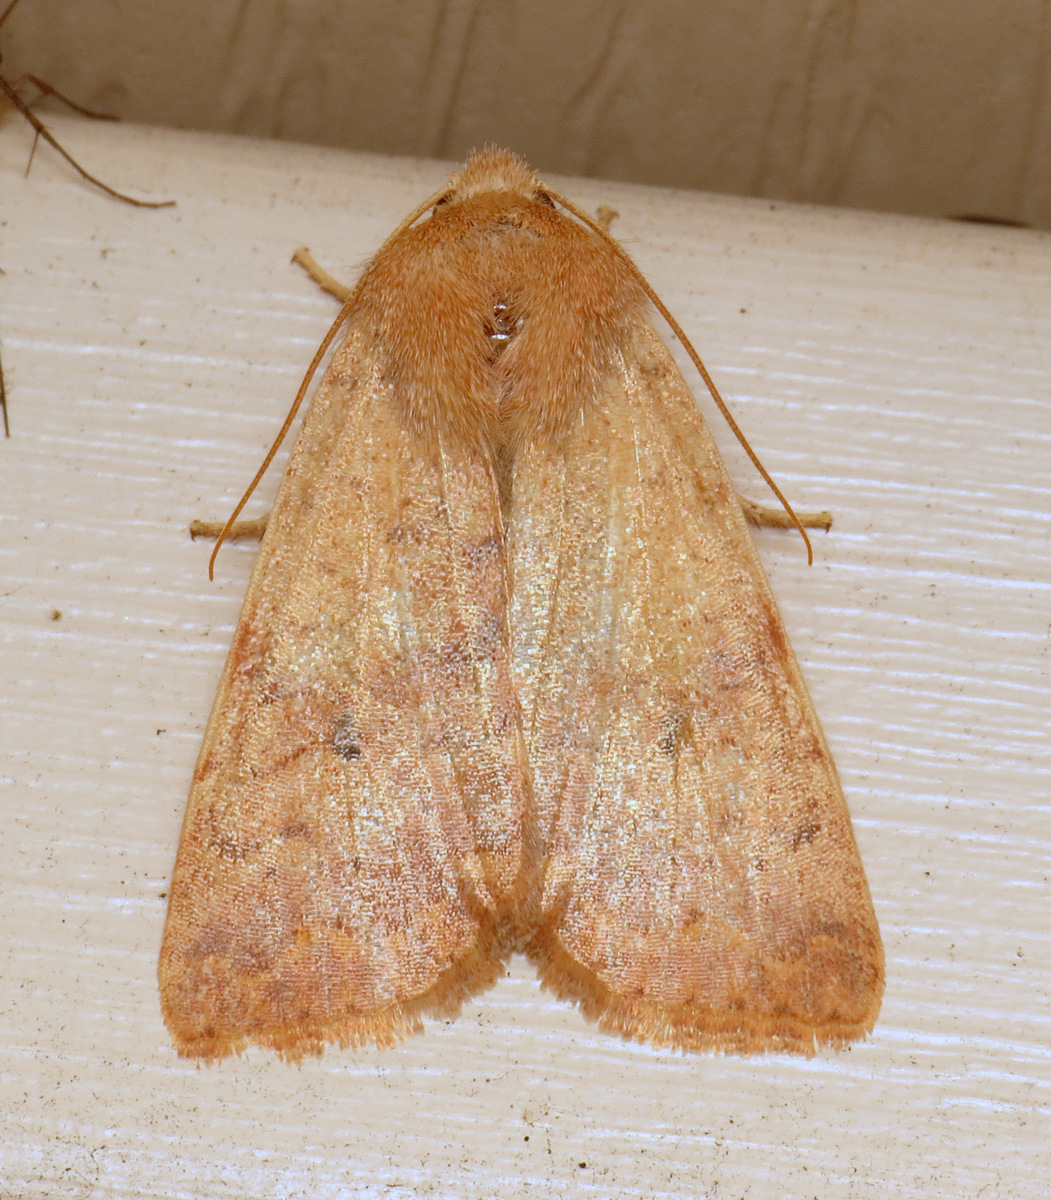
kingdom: Animalia
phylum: Arthropoda
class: Insecta
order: Lepidoptera
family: Noctuidae
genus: Agrochola
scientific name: Agrochola bicolorago
